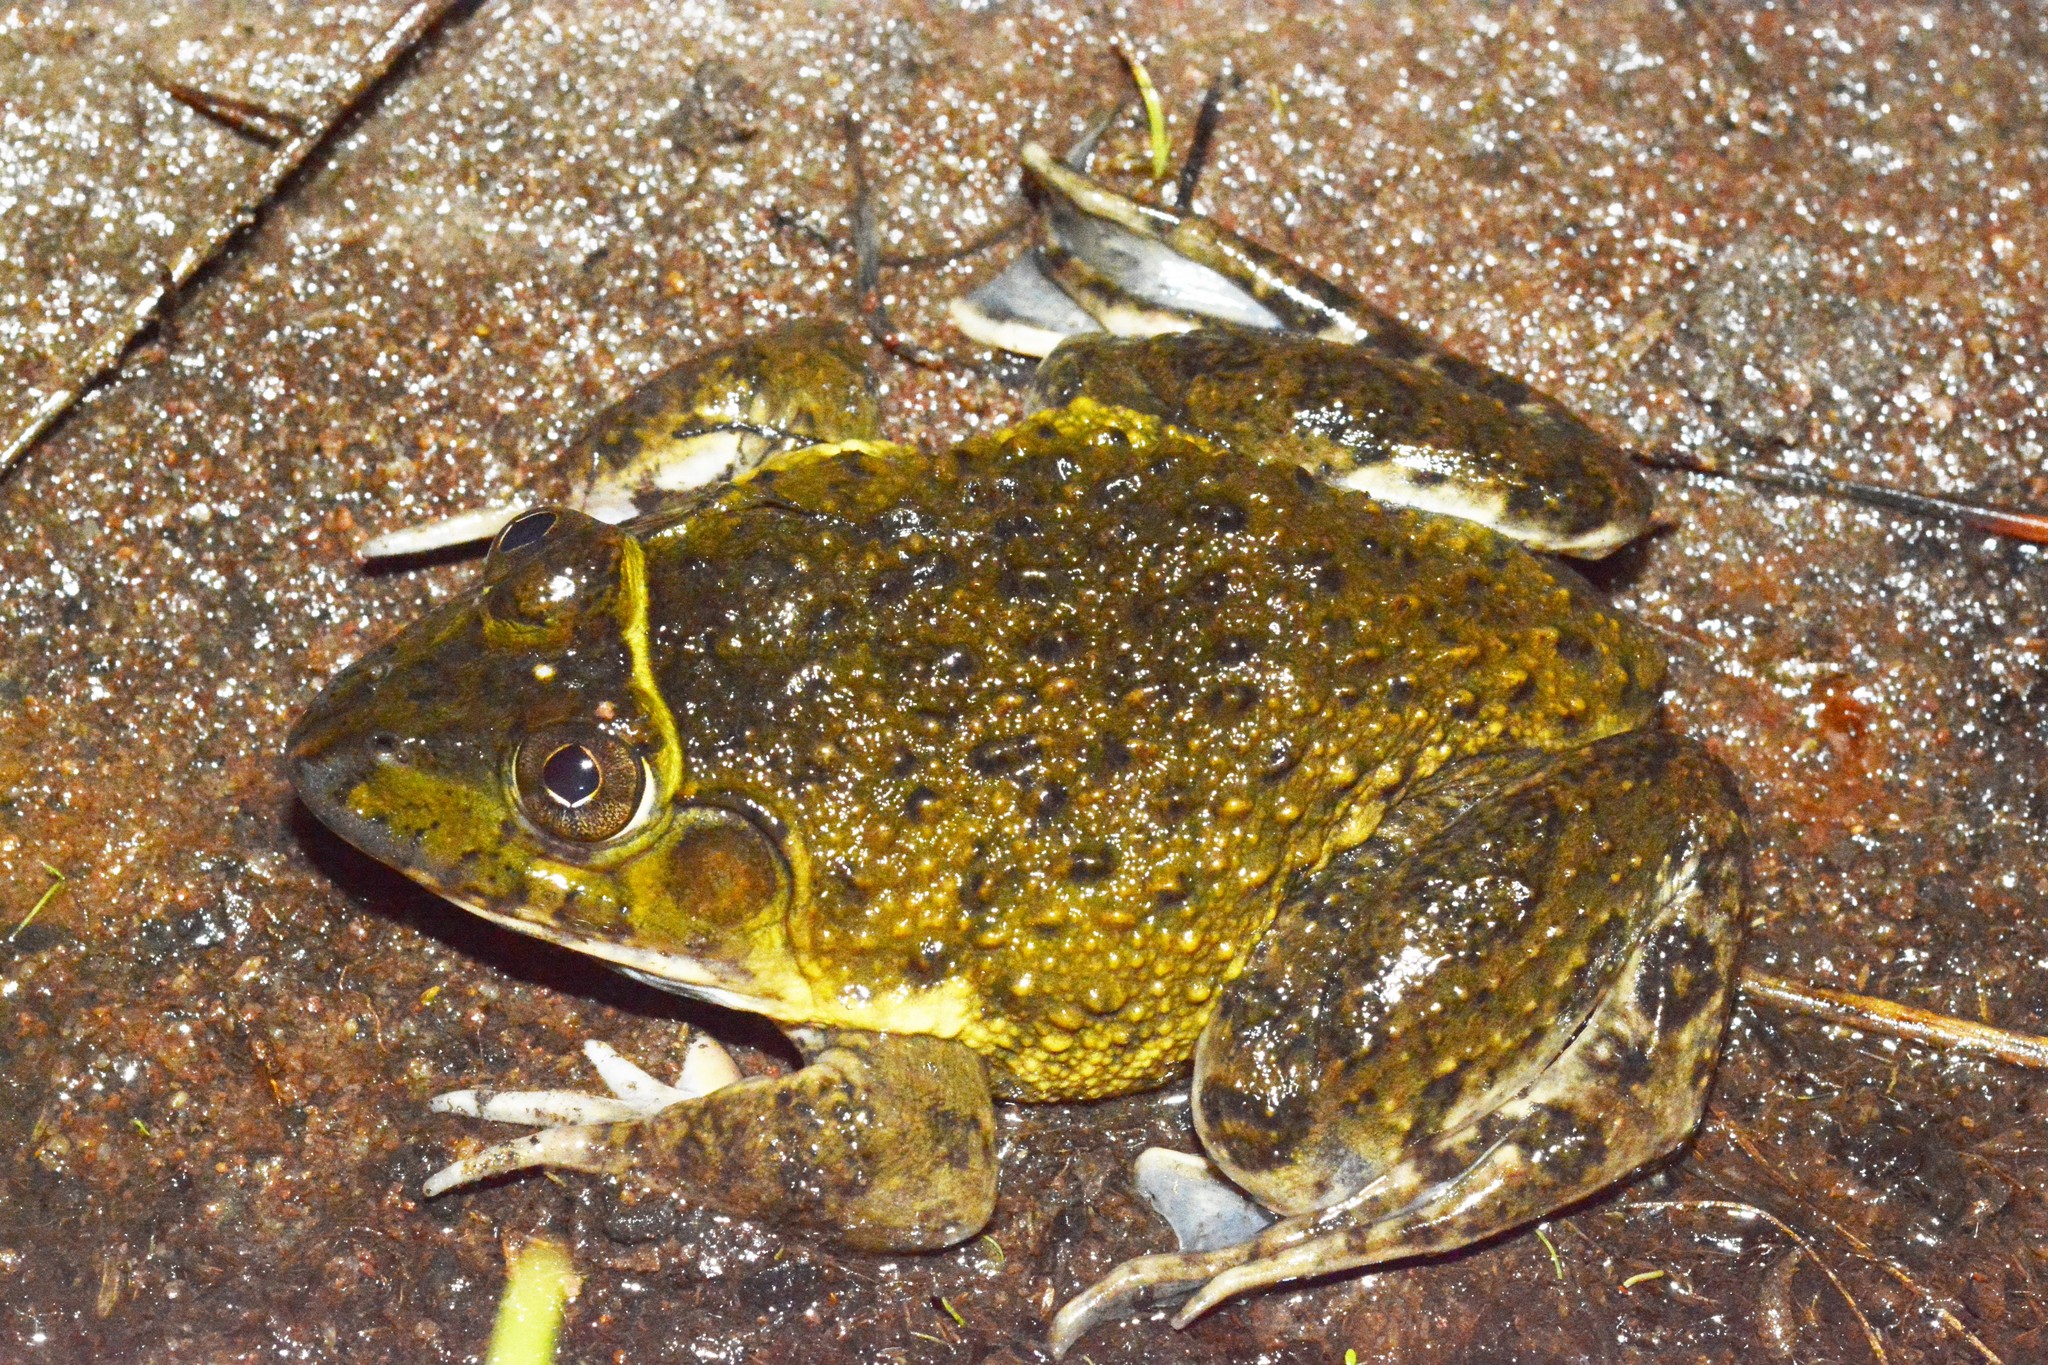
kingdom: Animalia
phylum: Chordata
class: Amphibia
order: Anura
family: Dicroglossidae
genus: Hoplobatrachus
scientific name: Hoplobatrachus occipitalis
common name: Eastern groove-crowned bullfrog
